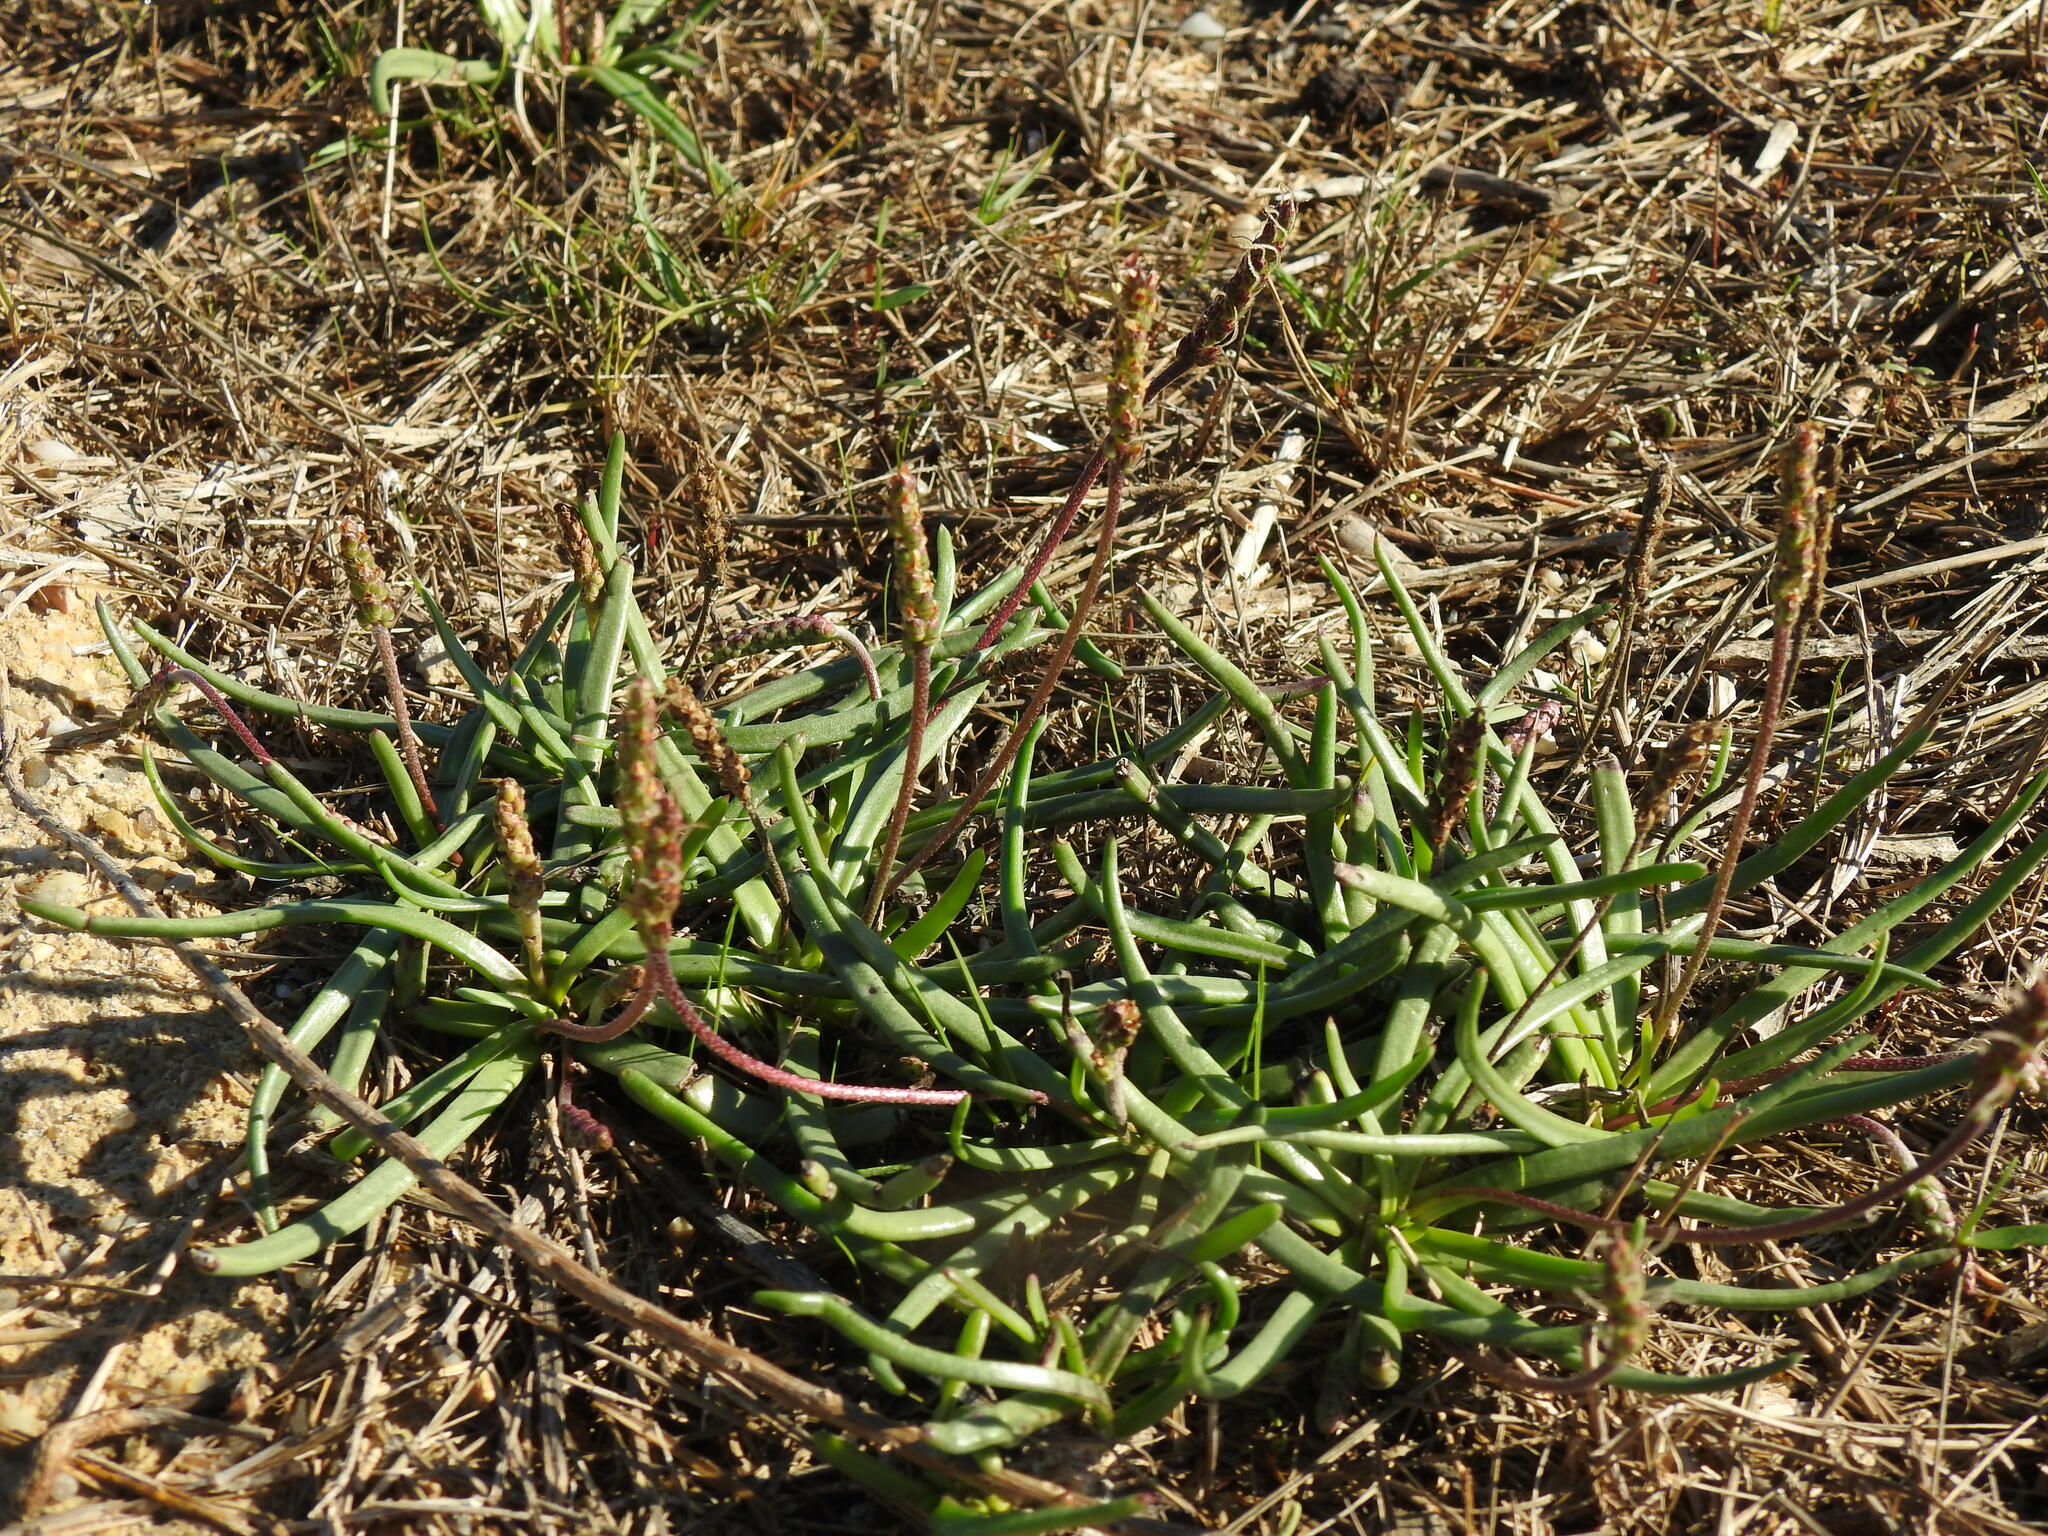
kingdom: Plantae
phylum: Tracheophyta
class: Magnoliopsida
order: Lamiales
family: Plantaginaceae
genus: Plantago
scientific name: Plantago maritima
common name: Sea plantain
